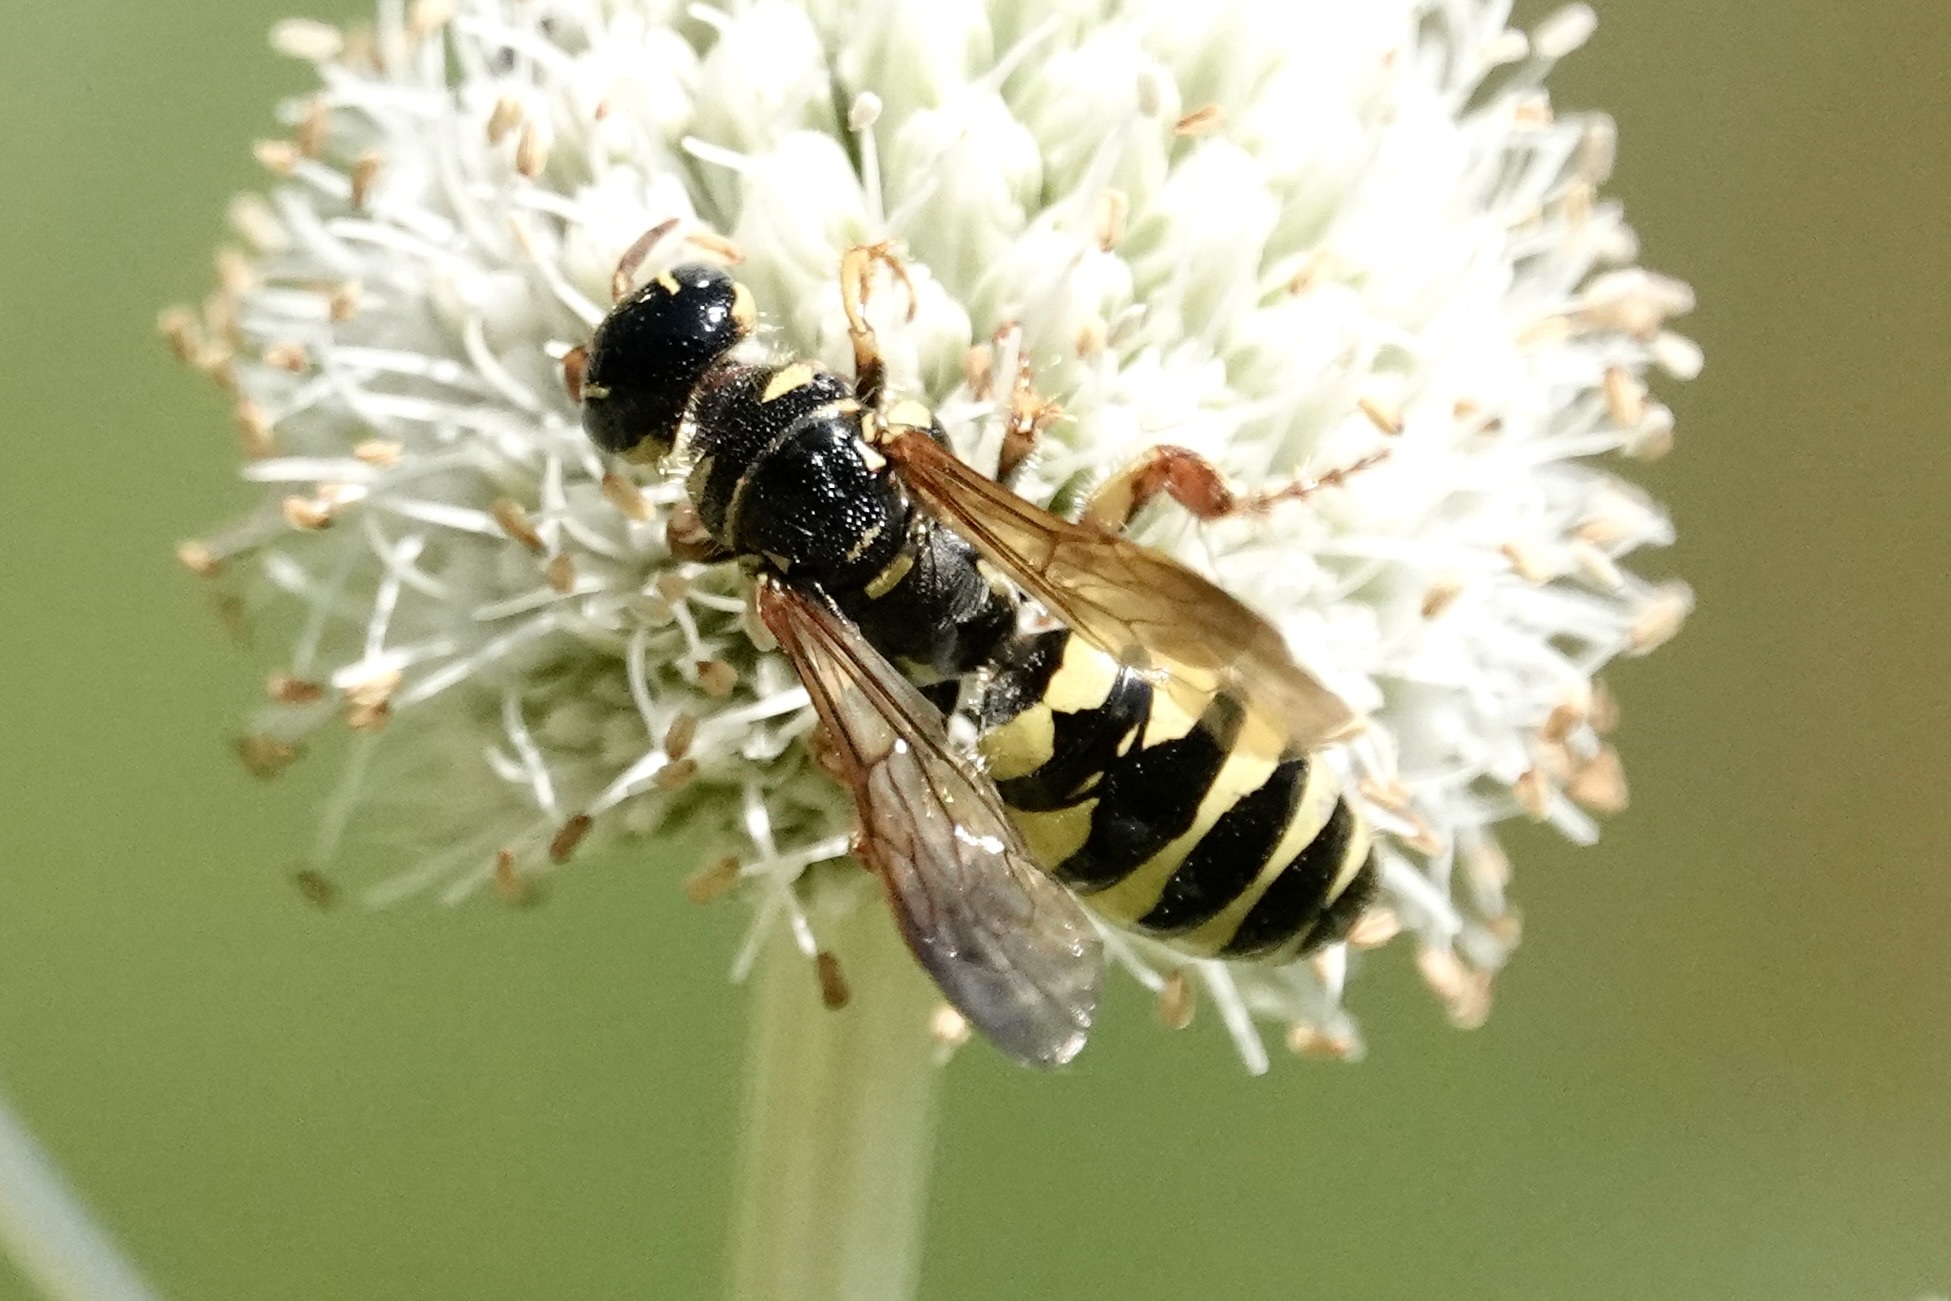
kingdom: Animalia
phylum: Arthropoda
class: Insecta
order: Hymenoptera
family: Tiphiidae
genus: Myzinum
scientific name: Myzinum quinquecinctum
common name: Five-banded thynnid wasp
